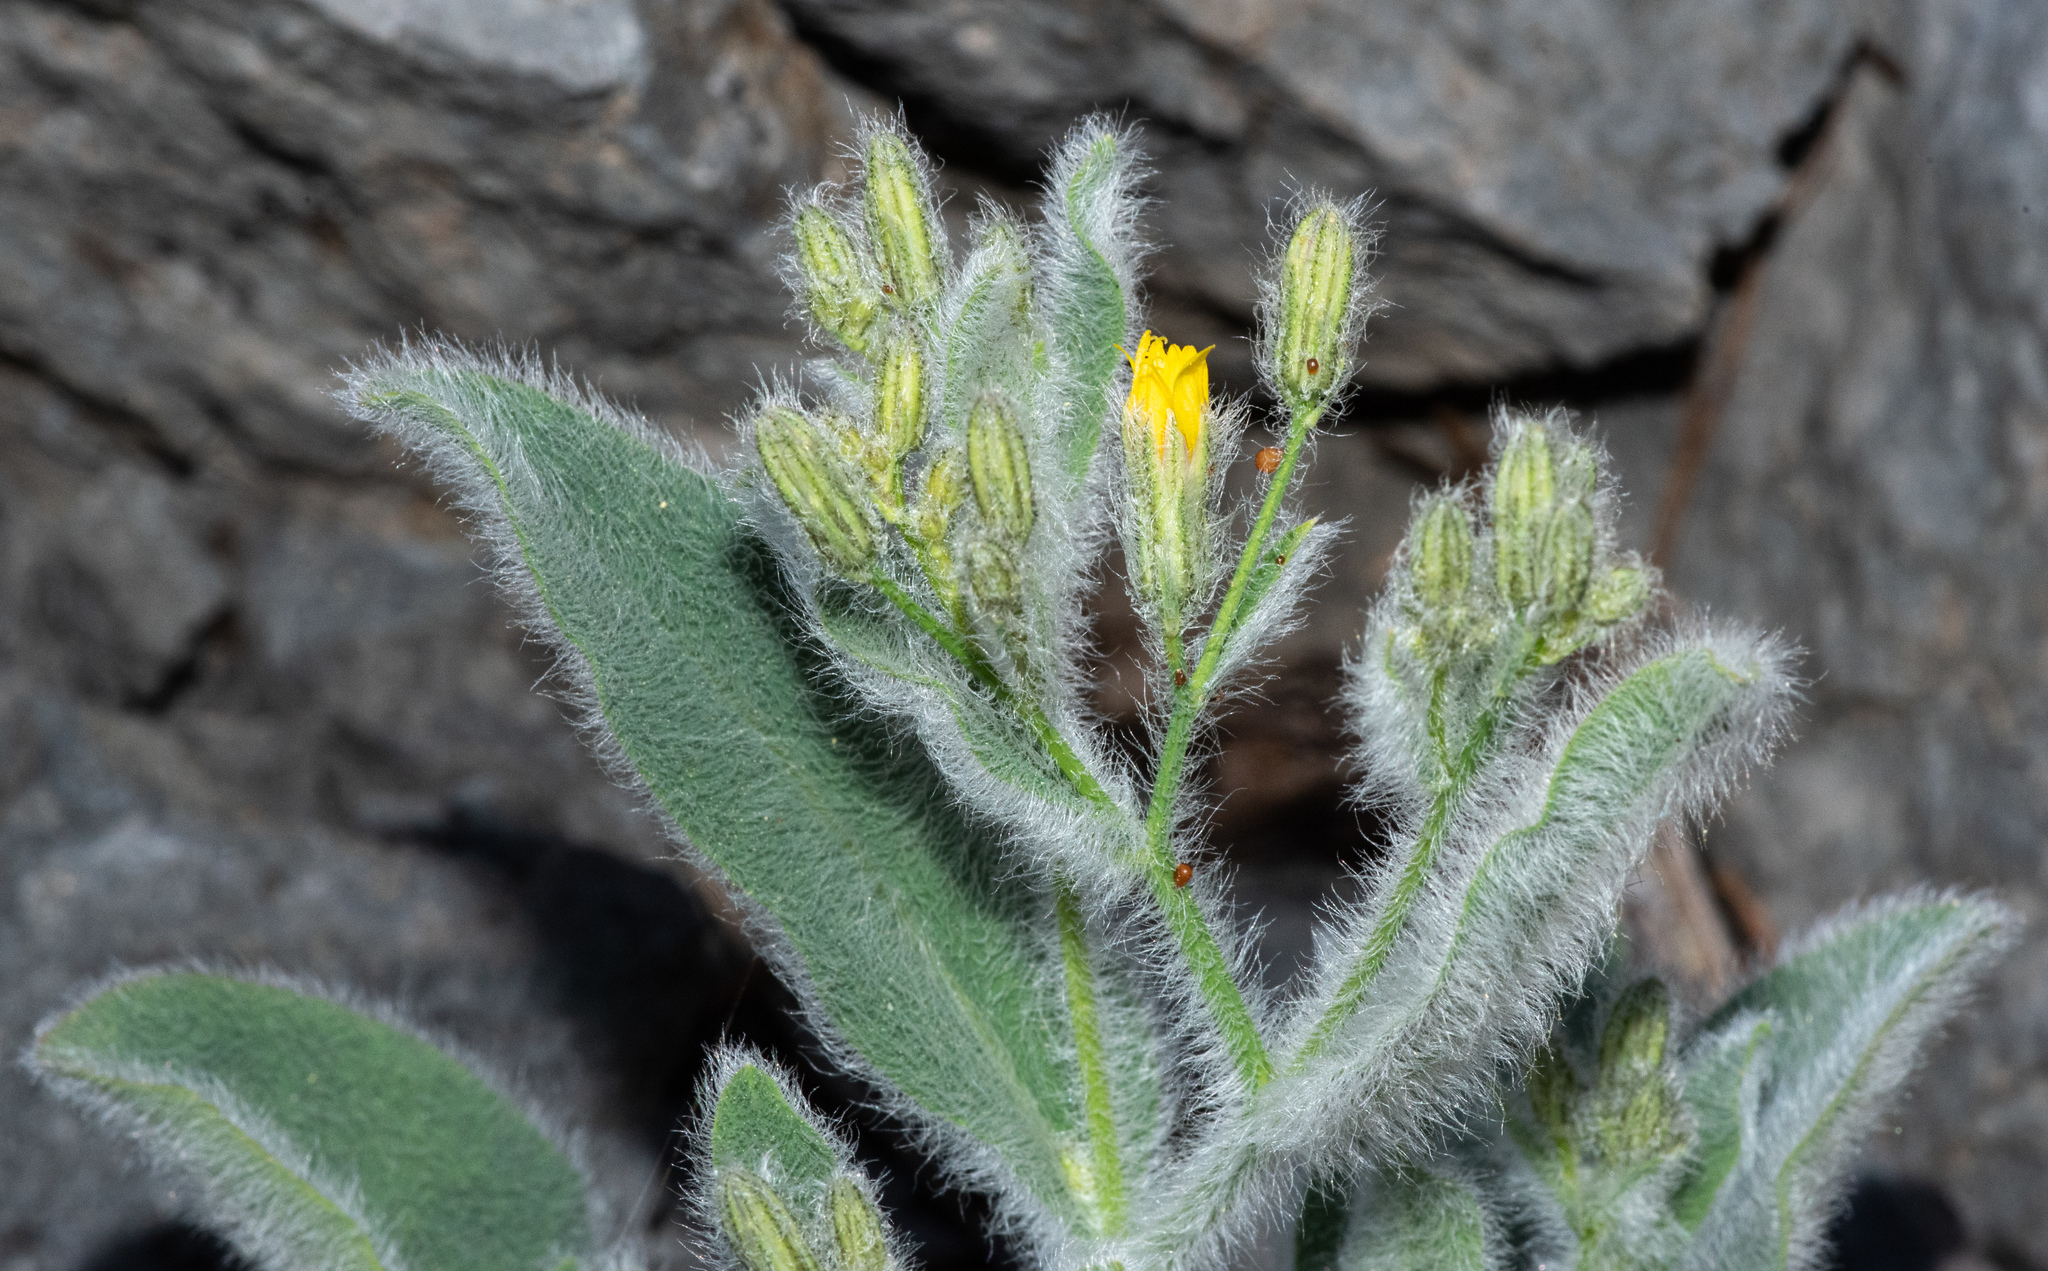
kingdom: Plantae
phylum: Tracheophyta
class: Magnoliopsida
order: Asterales
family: Asteraceae
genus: Hieracium
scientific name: Hieracium horridum
